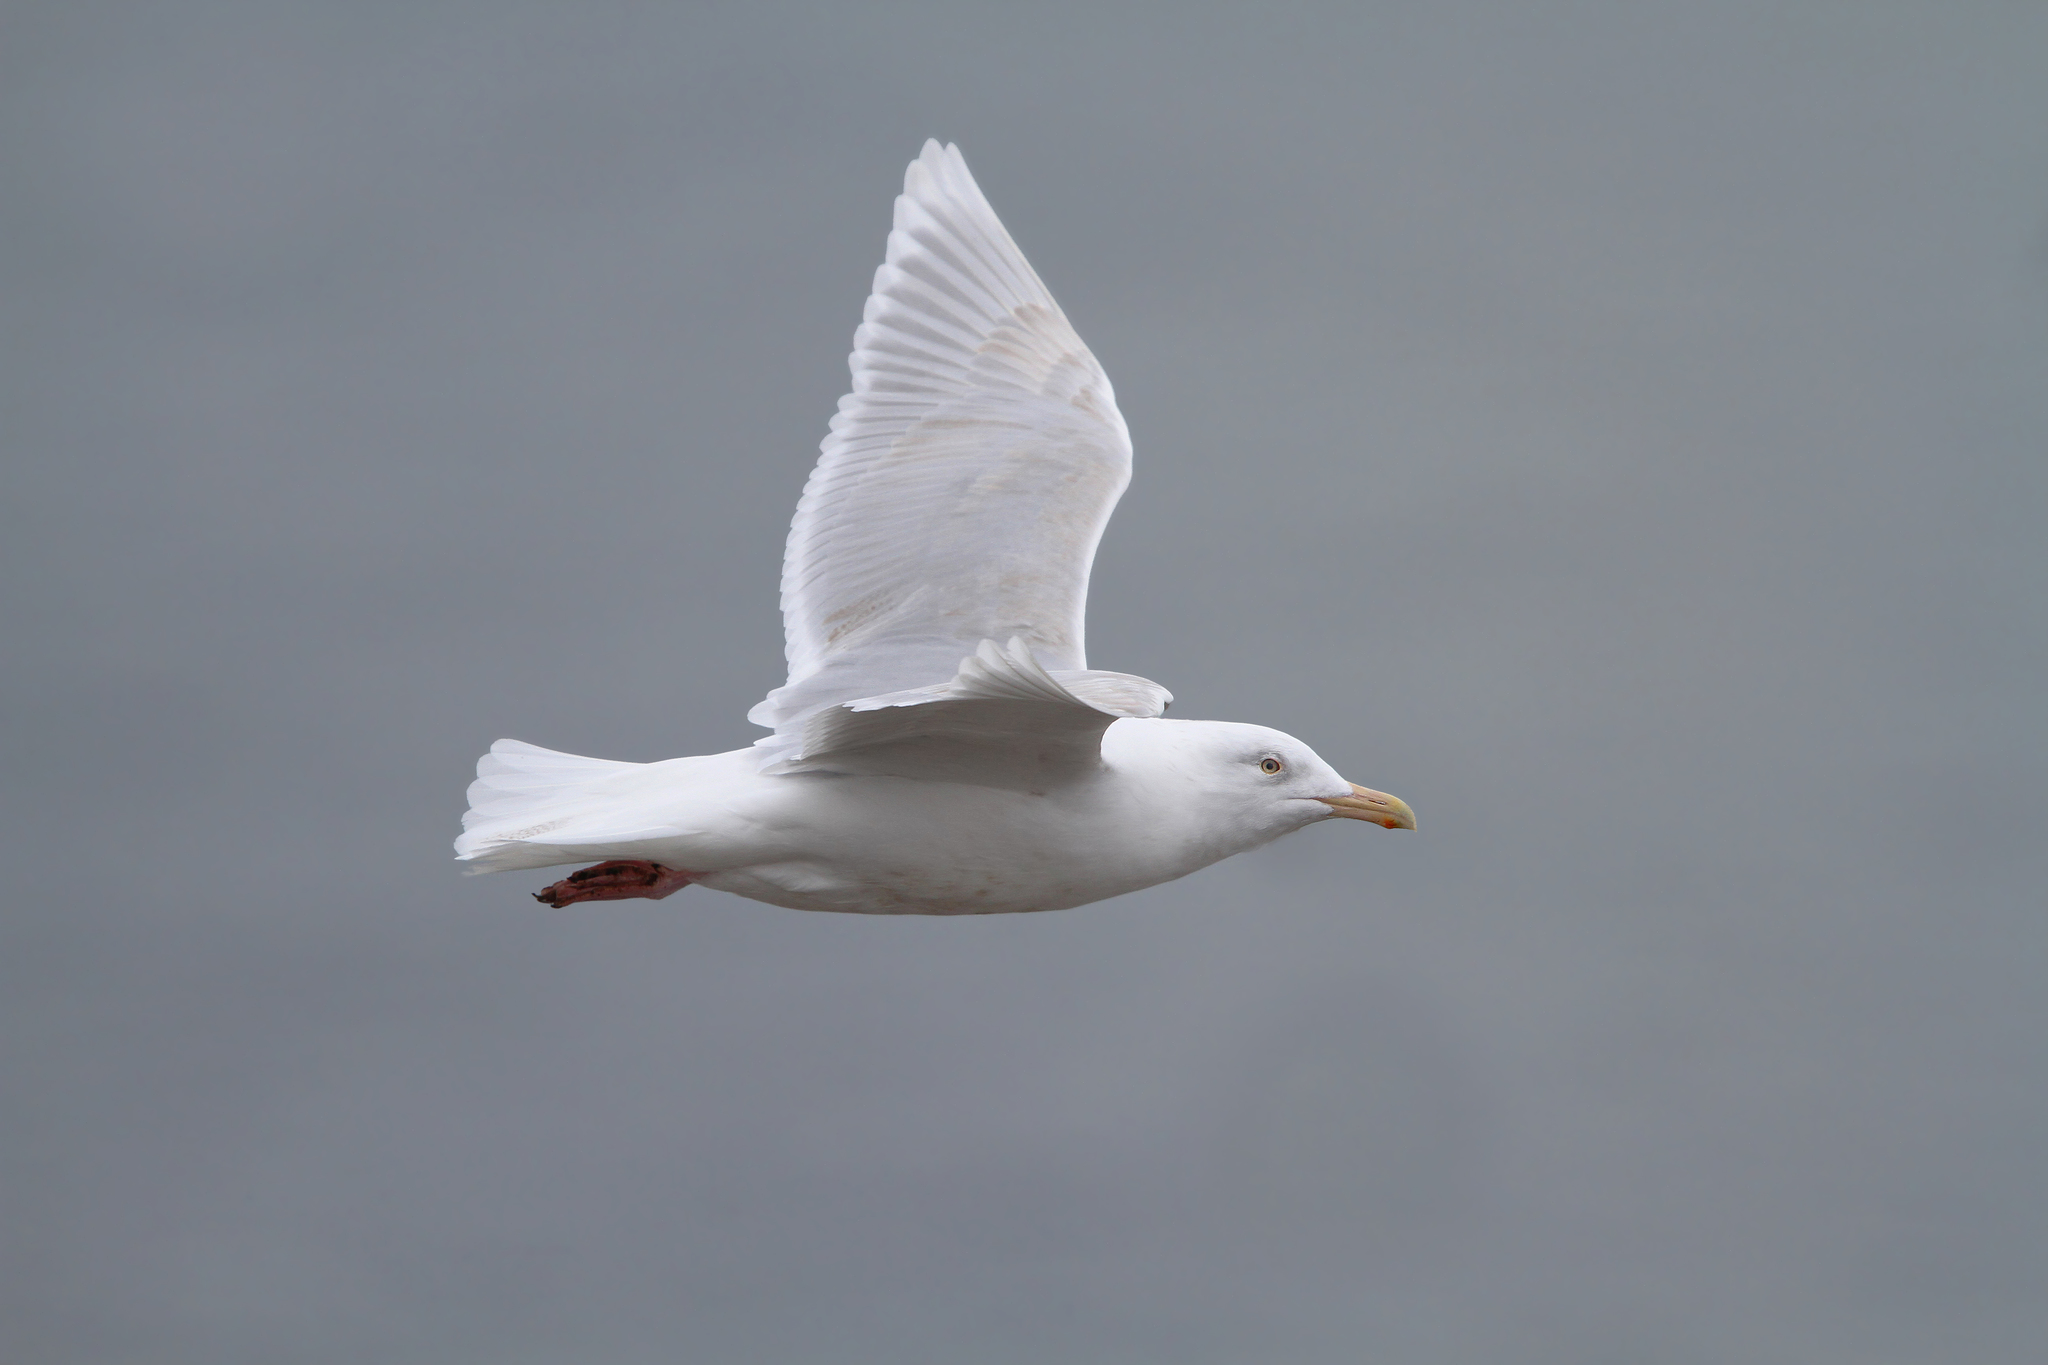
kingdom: Animalia
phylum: Chordata
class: Aves
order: Charadriiformes
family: Laridae
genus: Larus
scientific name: Larus glaucoides
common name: Iceland gull
